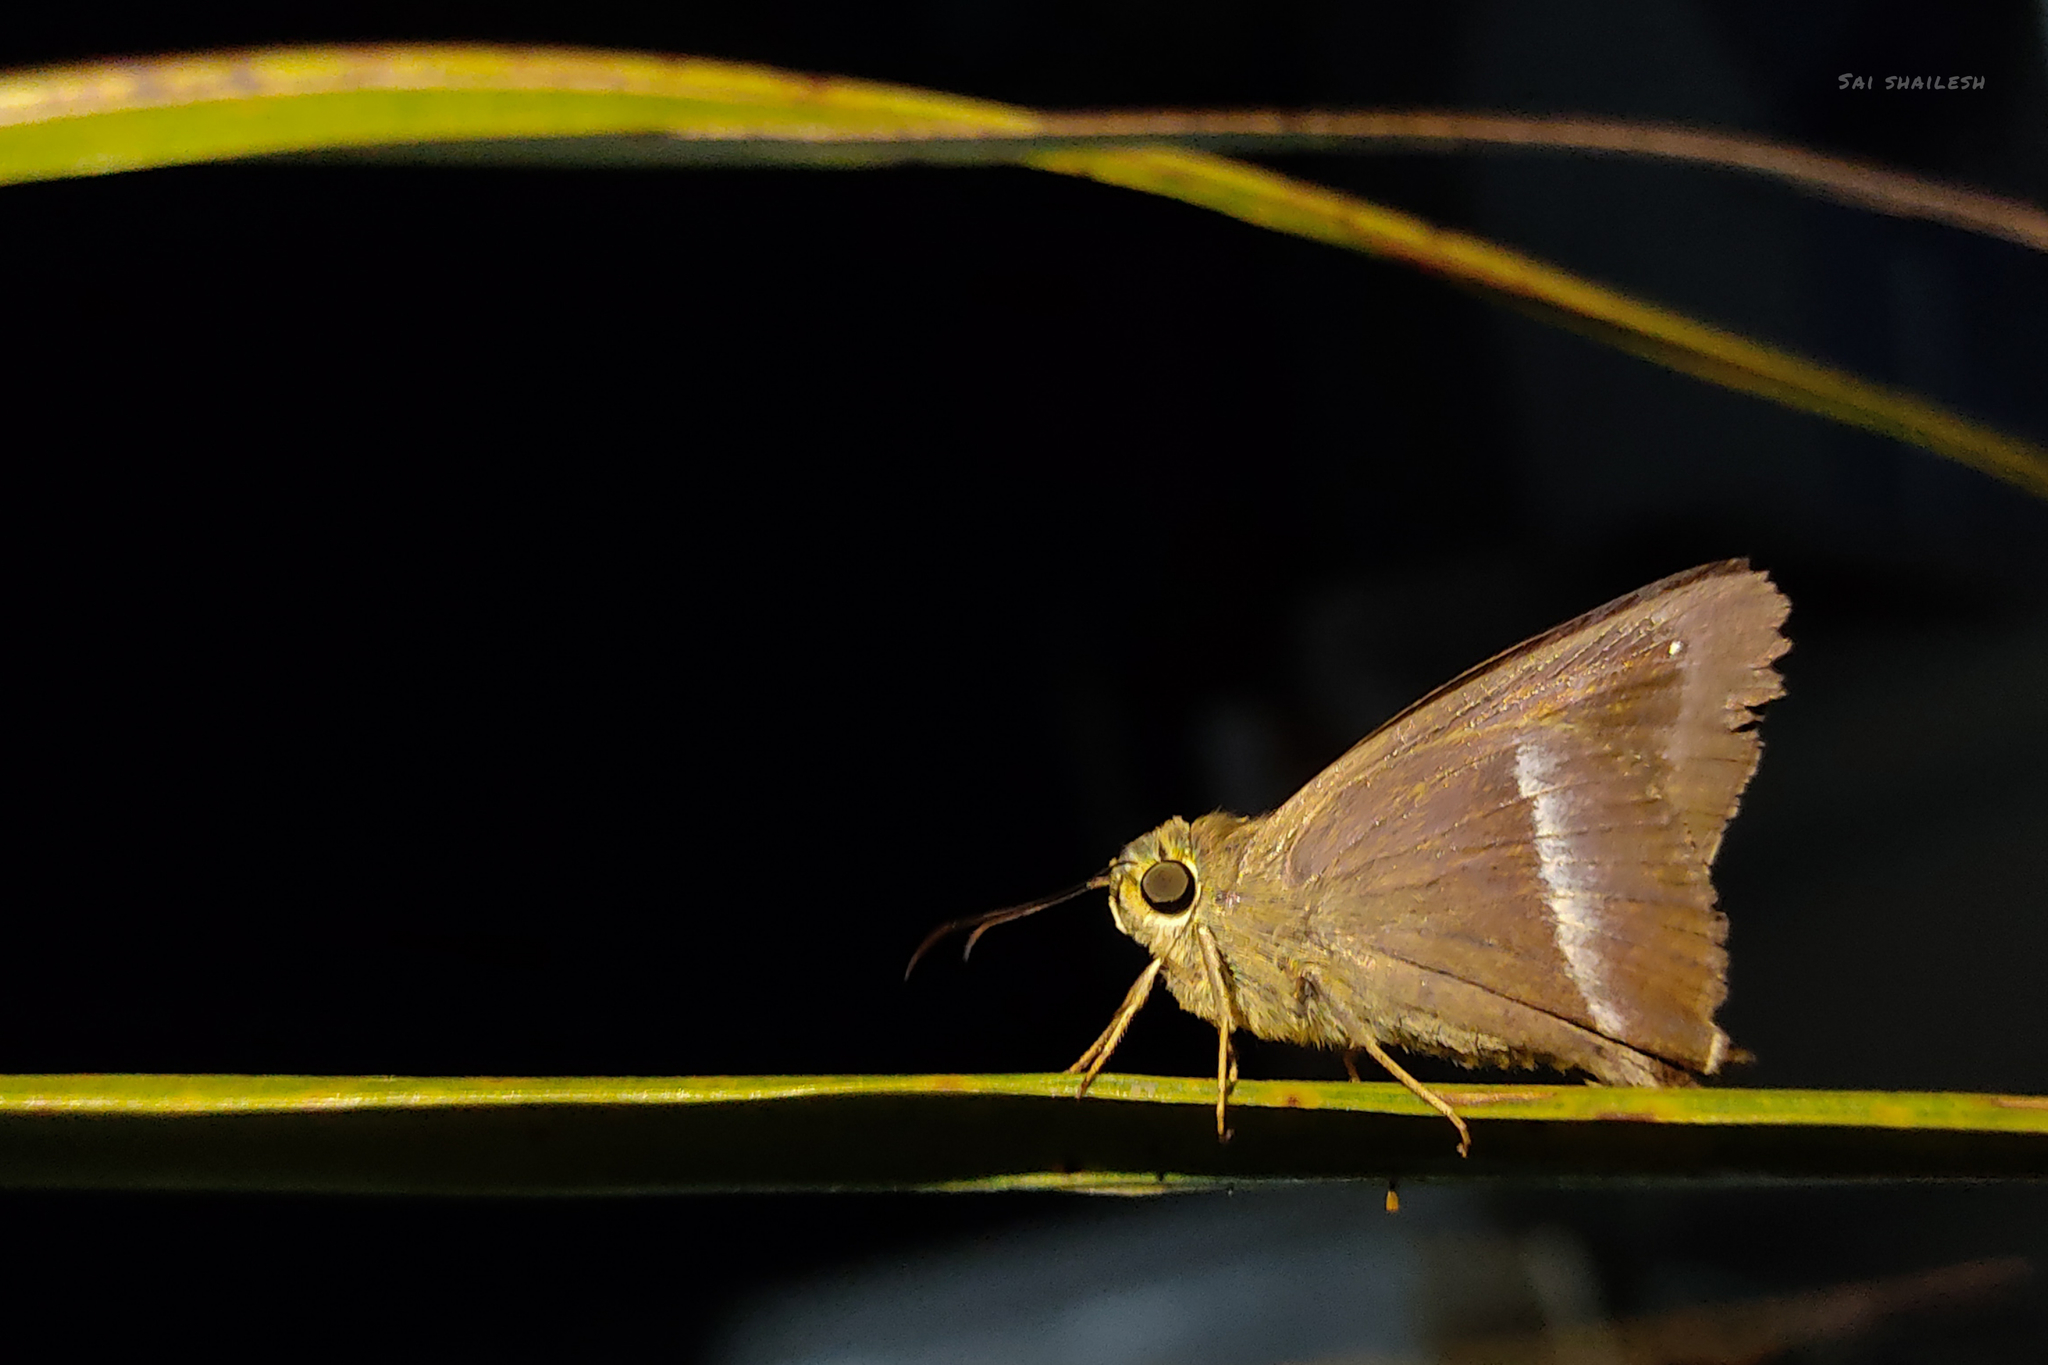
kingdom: Animalia
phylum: Arthropoda
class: Insecta
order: Lepidoptera
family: Hesperiidae
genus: Hasora
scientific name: Hasora chromus
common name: Common banded awl
